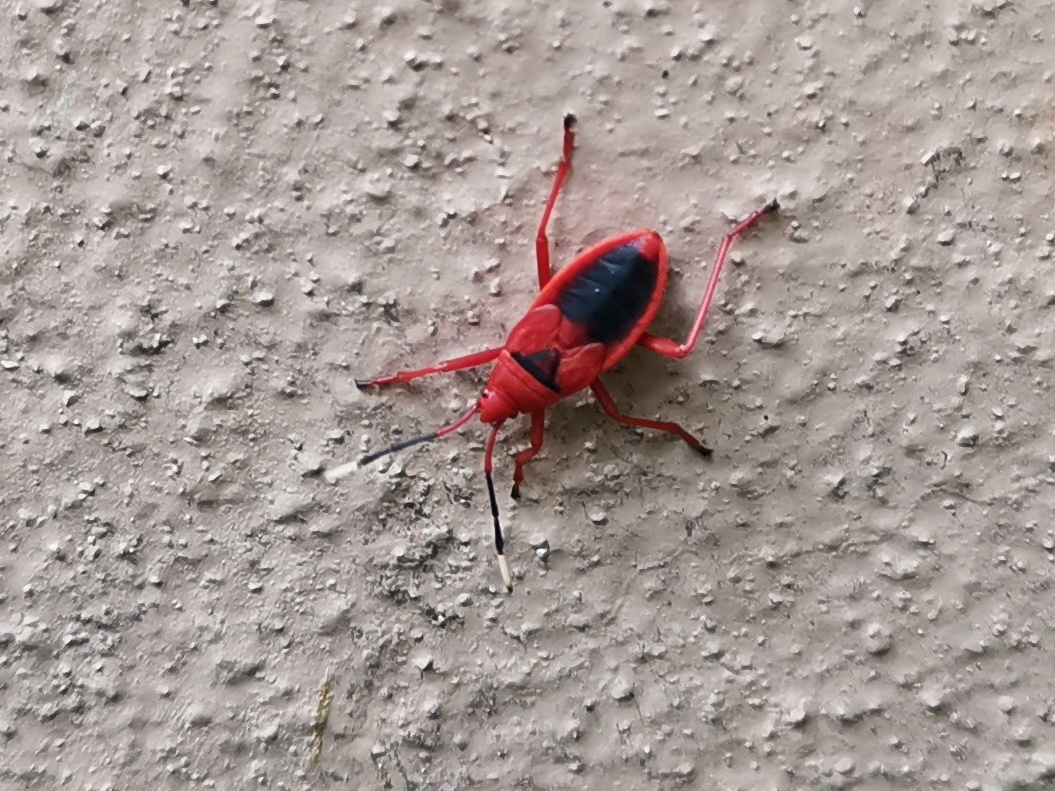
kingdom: Animalia
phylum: Arthropoda
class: Insecta
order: Hemiptera
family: Pyrrhocoridae
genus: Probergrothius
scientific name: Probergrothius
